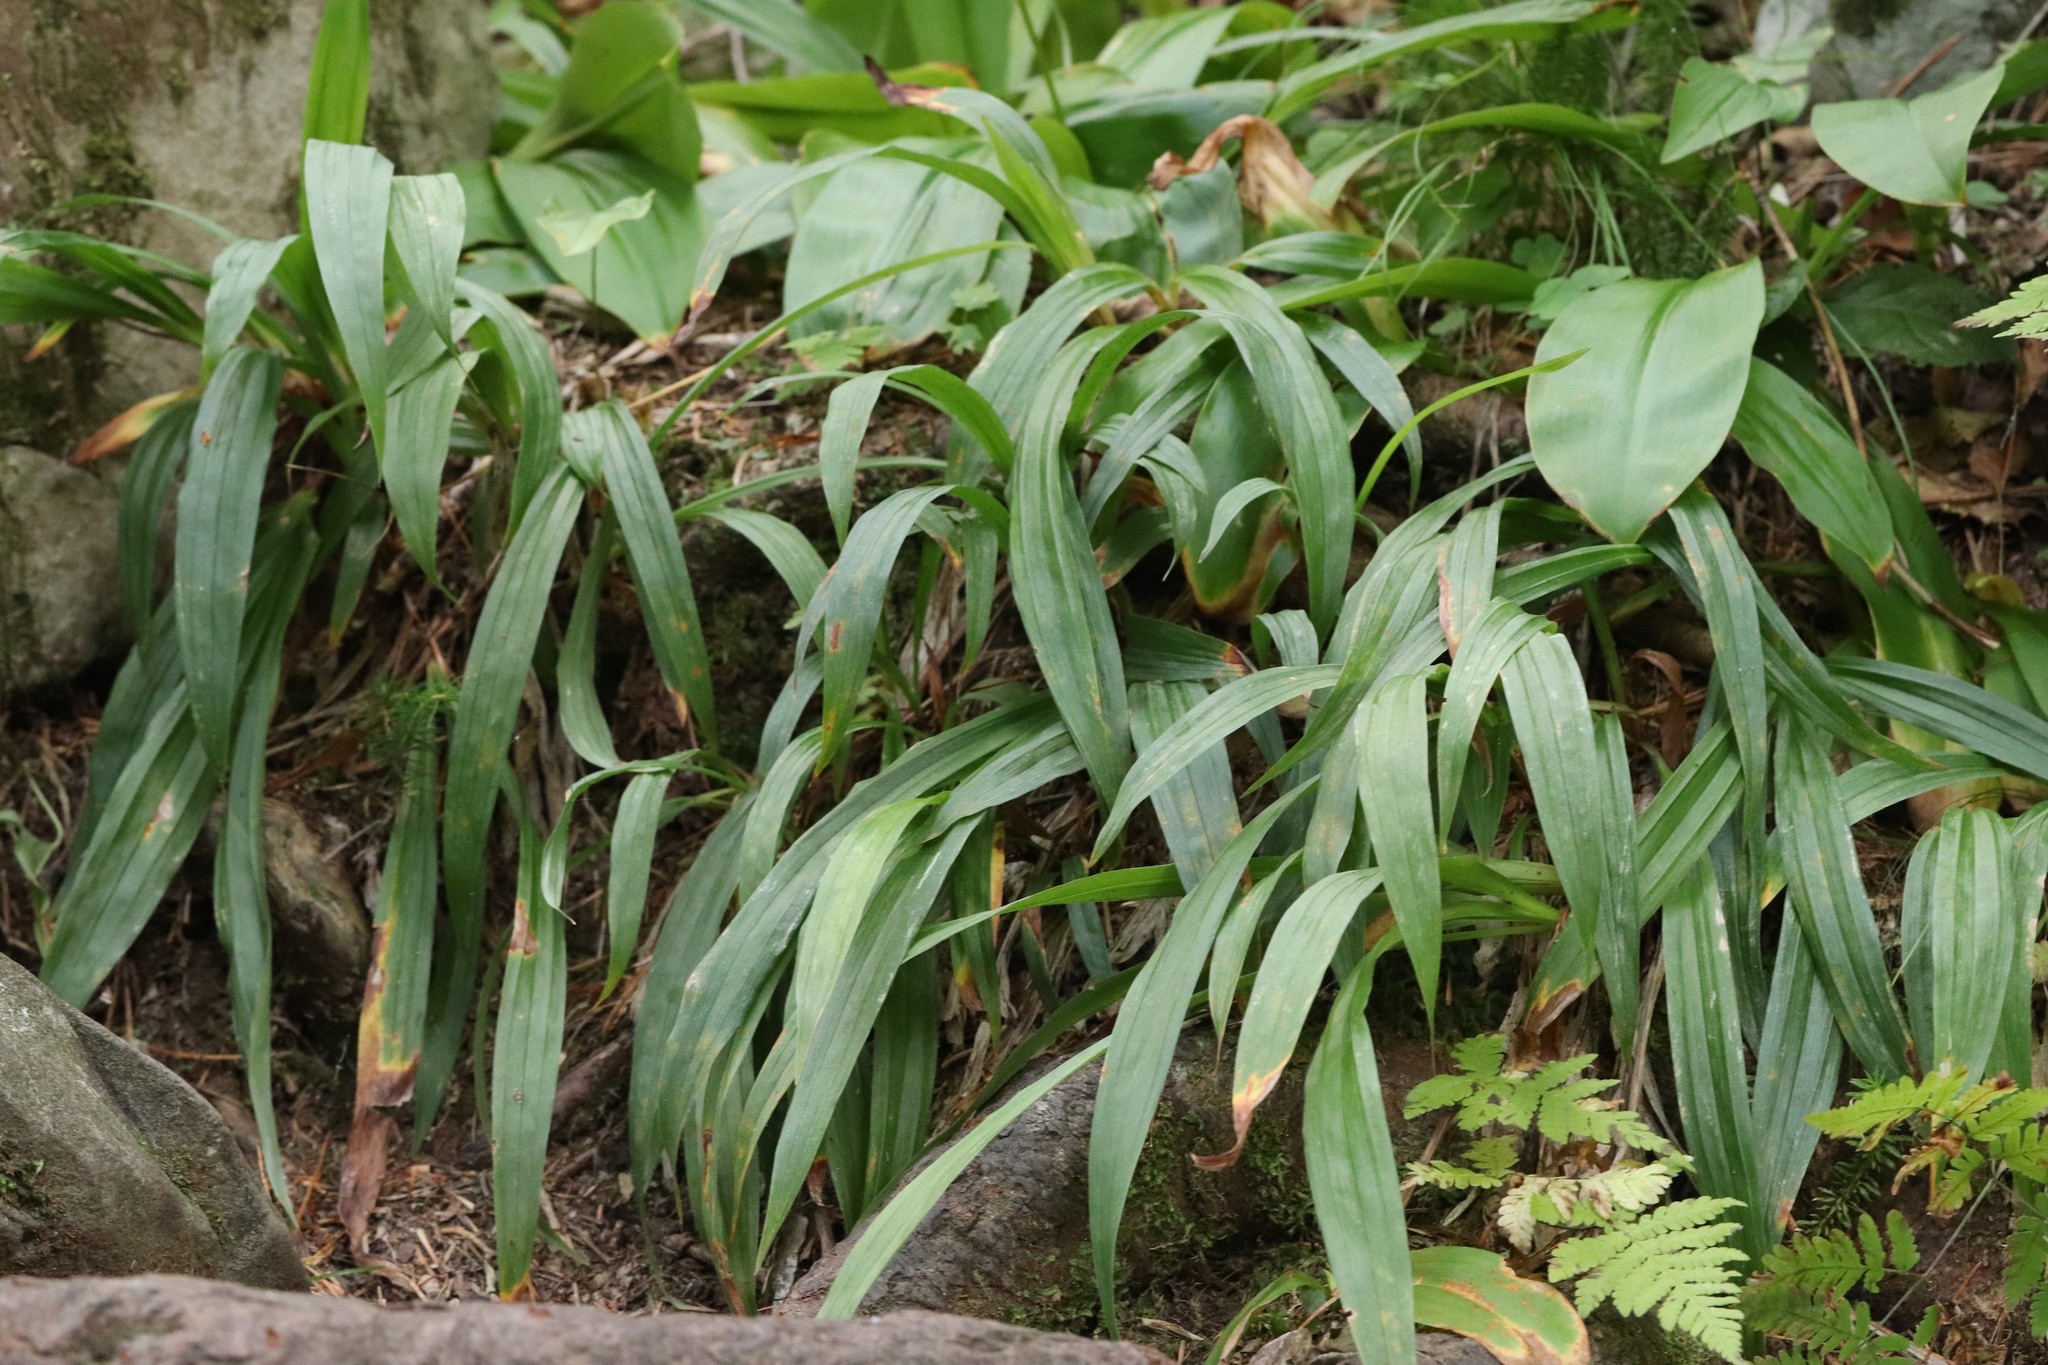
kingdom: Plantae
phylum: Tracheophyta
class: Liliopsida
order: Poales
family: Cyperaceae
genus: Carex
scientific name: Carex siderosticta
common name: Broadleaf sedge
